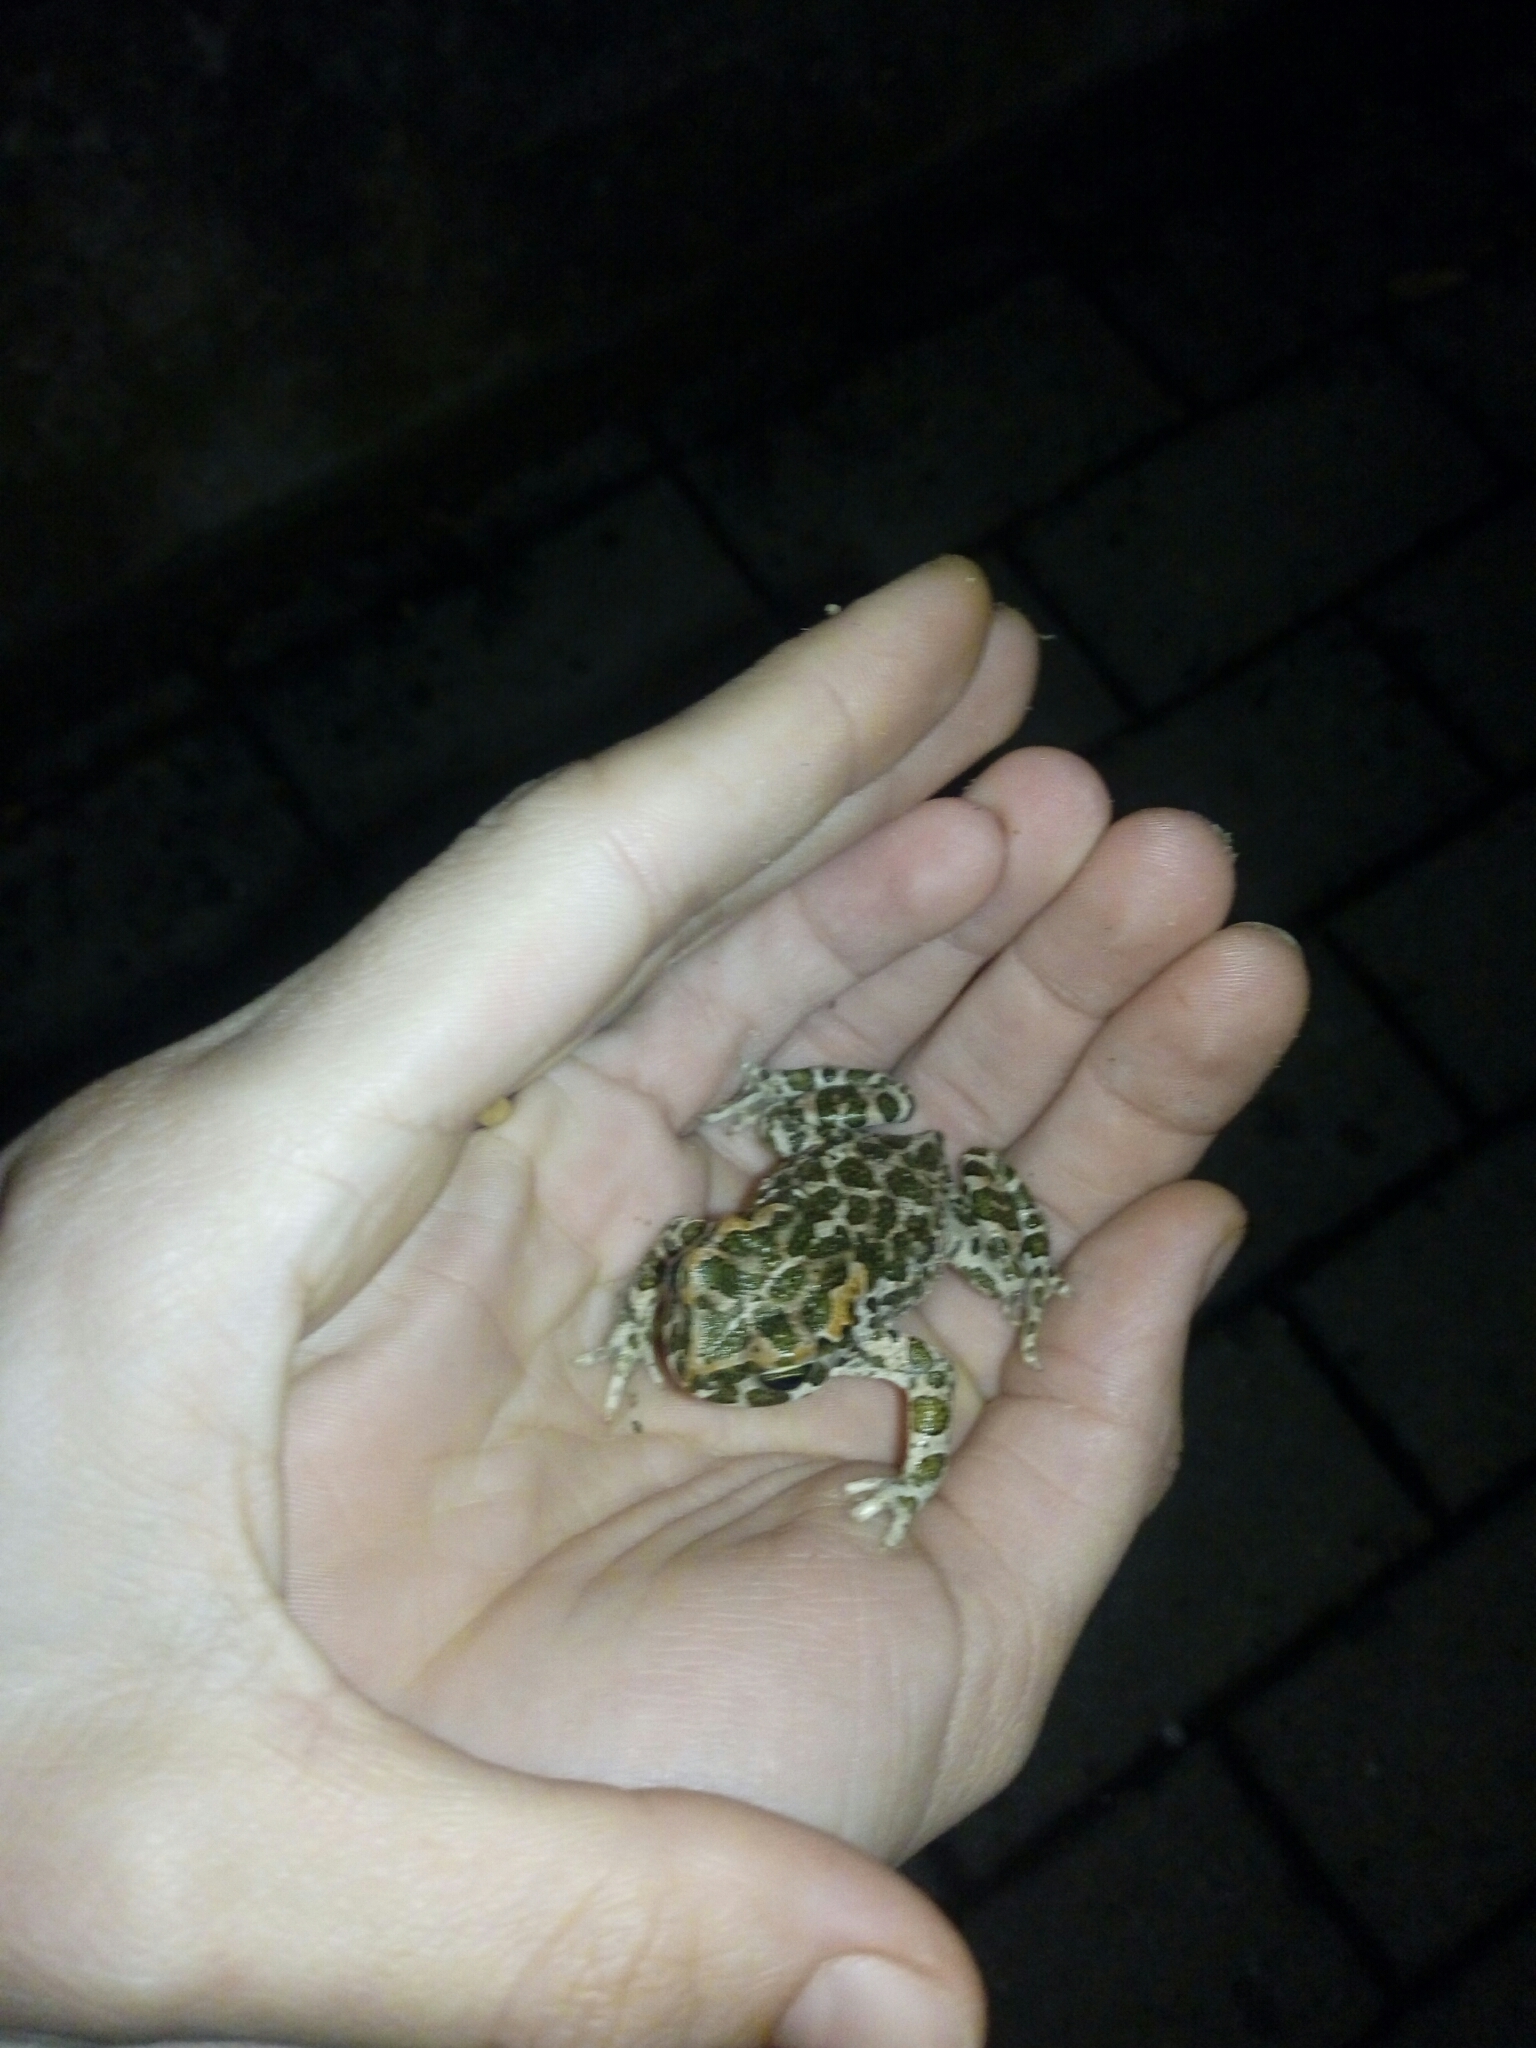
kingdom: Animalia
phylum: Chordata
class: Amphibia
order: Anura
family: Bufonidae
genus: Bufotes
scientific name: Bufotes viridis
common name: European green toad
